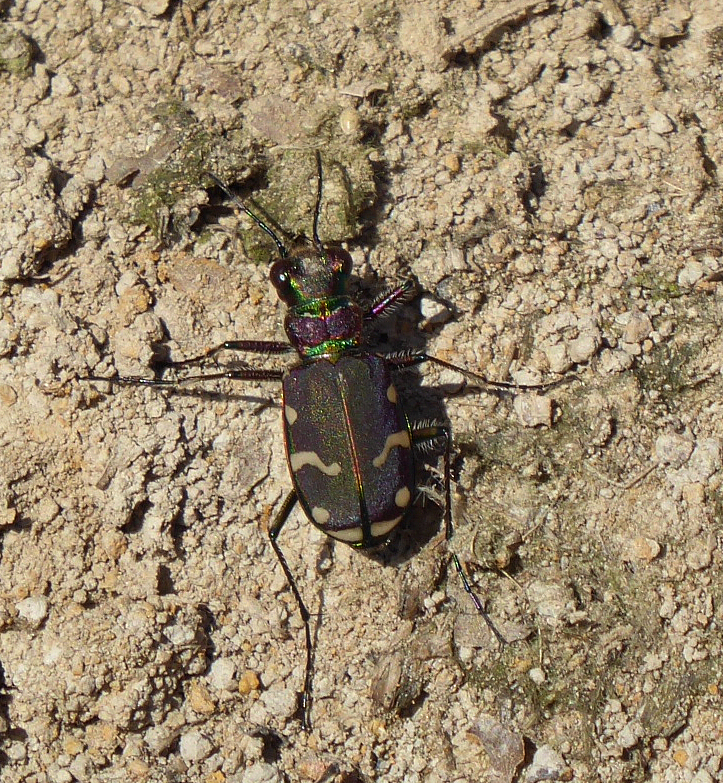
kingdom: Animalia
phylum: Arthropoda
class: Insecta
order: Coleoptera
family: Carabidae
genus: Cicindela
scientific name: Cicindela limbalis
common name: Common claybank tiger beetle
